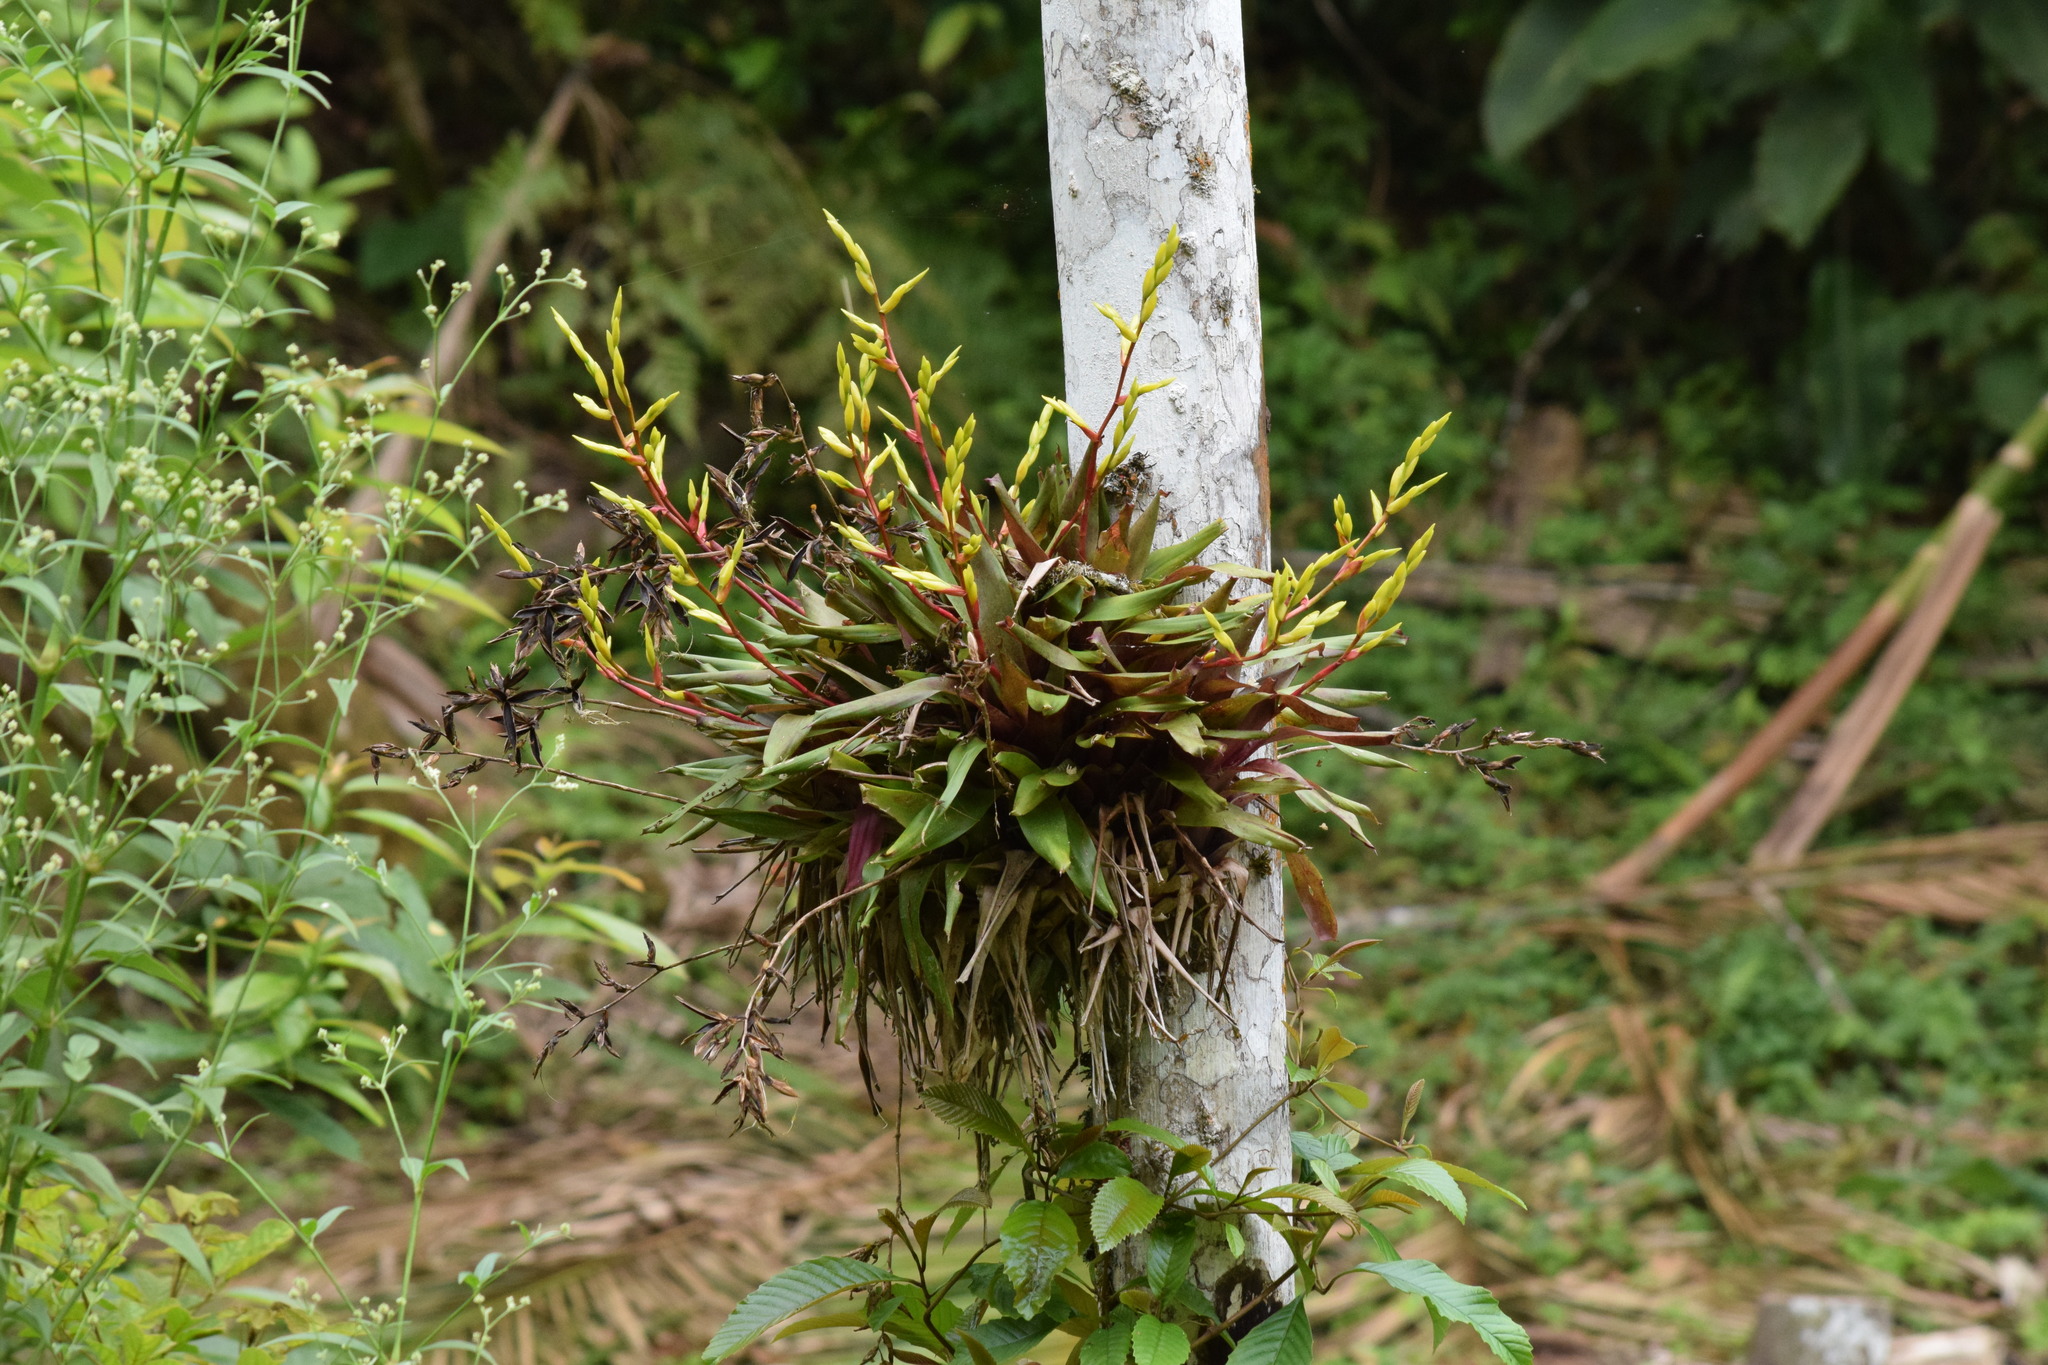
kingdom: Plantae
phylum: Tracheophyta
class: Liliopsida
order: Poales
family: Bromeliaceae
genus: Vriesea
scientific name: Vriesea rodigasiana
